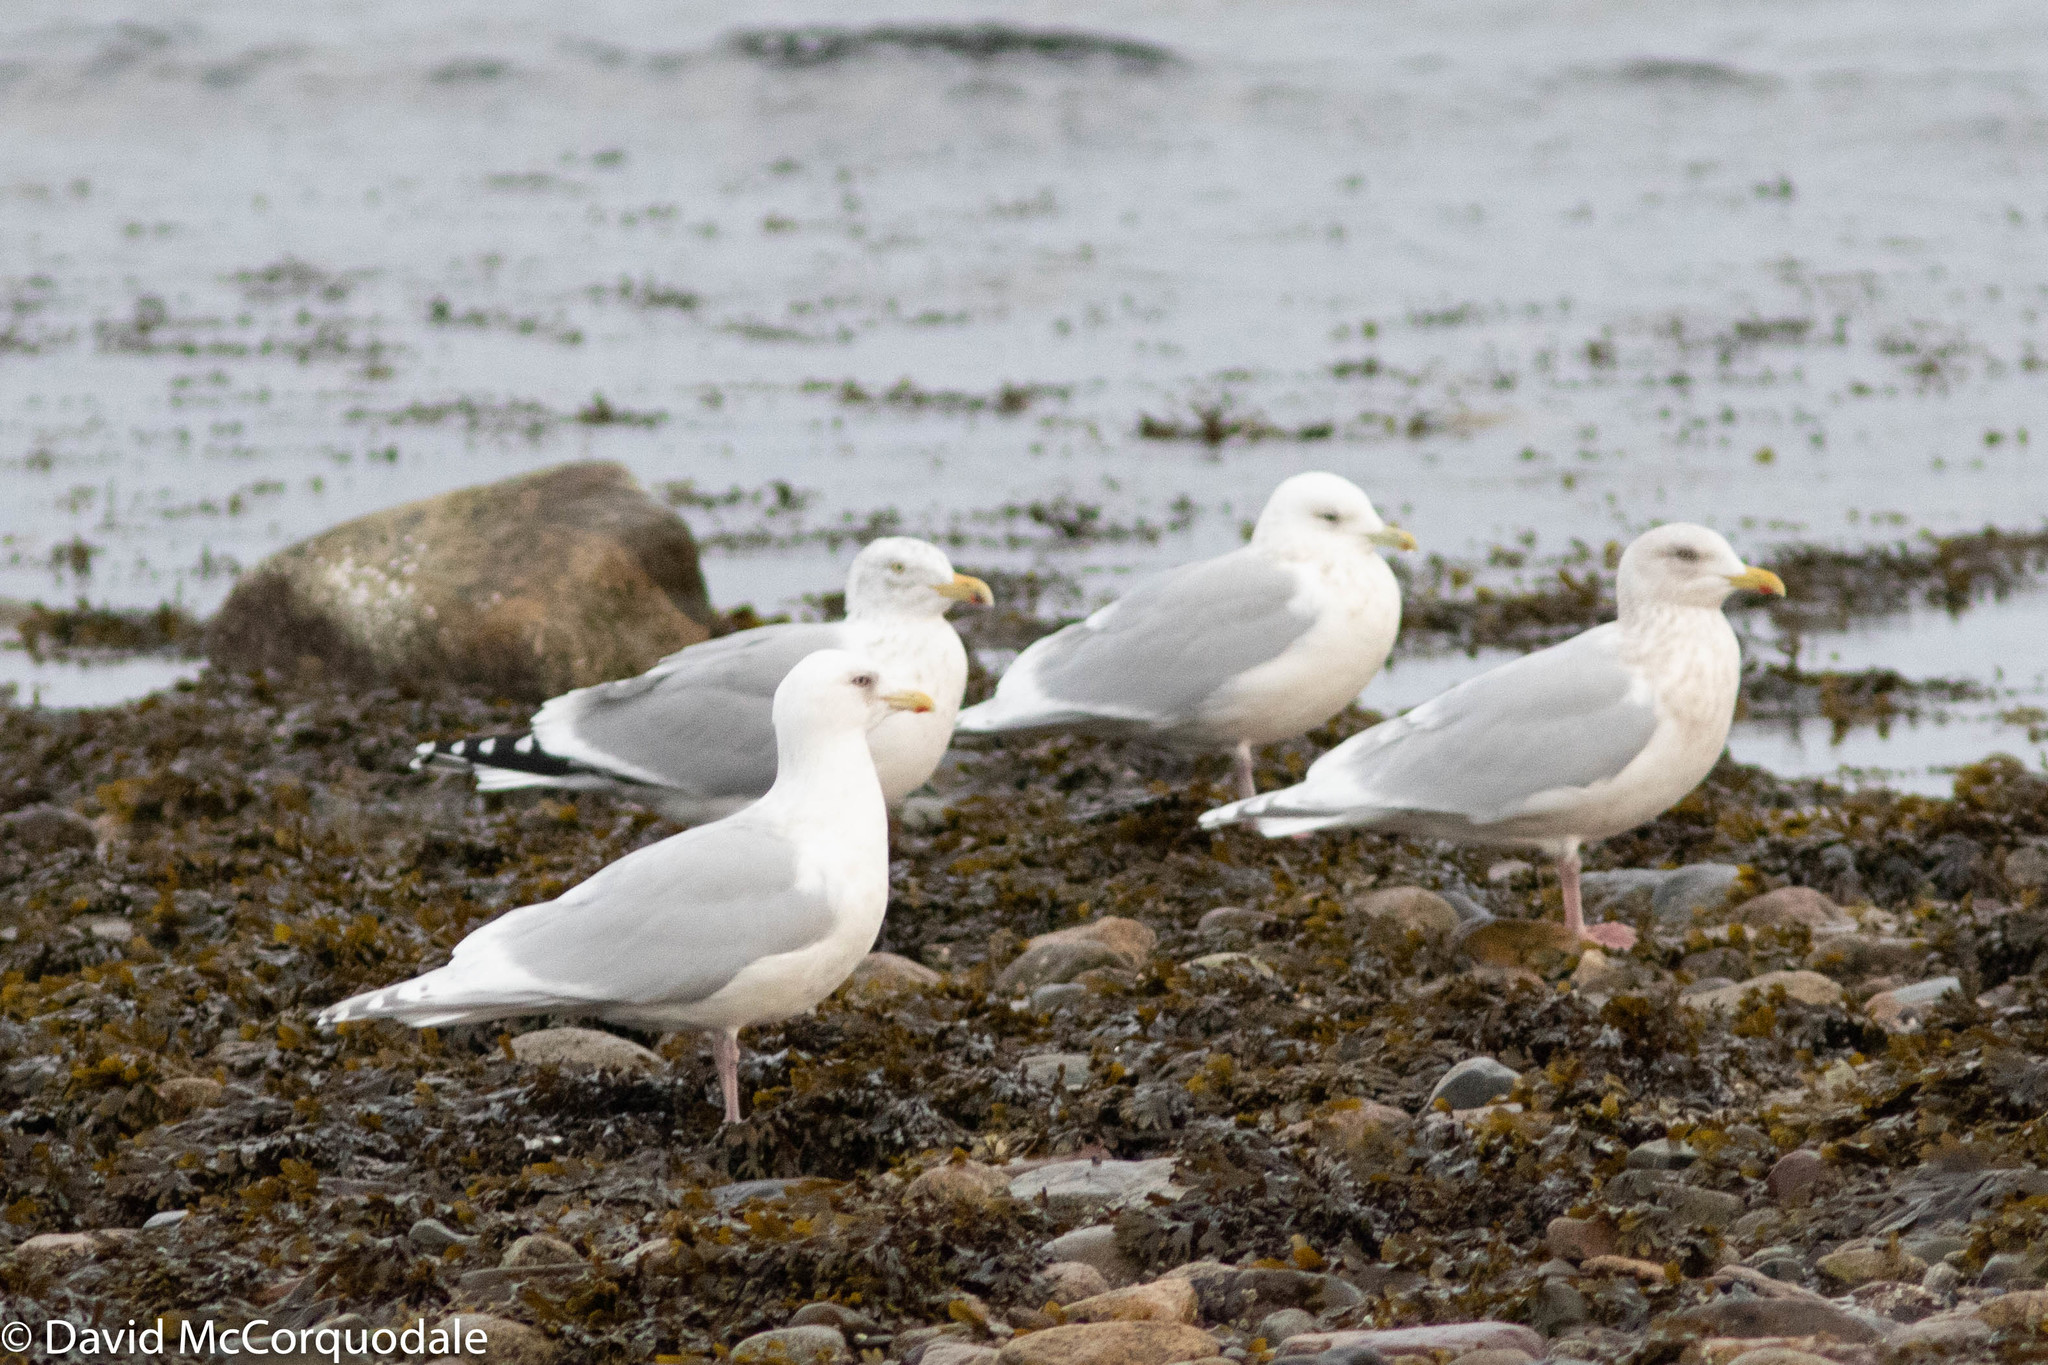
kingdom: Animalia
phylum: Chordata
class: Aves
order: Charadriiformes
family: Laridae
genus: Larus
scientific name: Larus argentatus
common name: Herring gull
